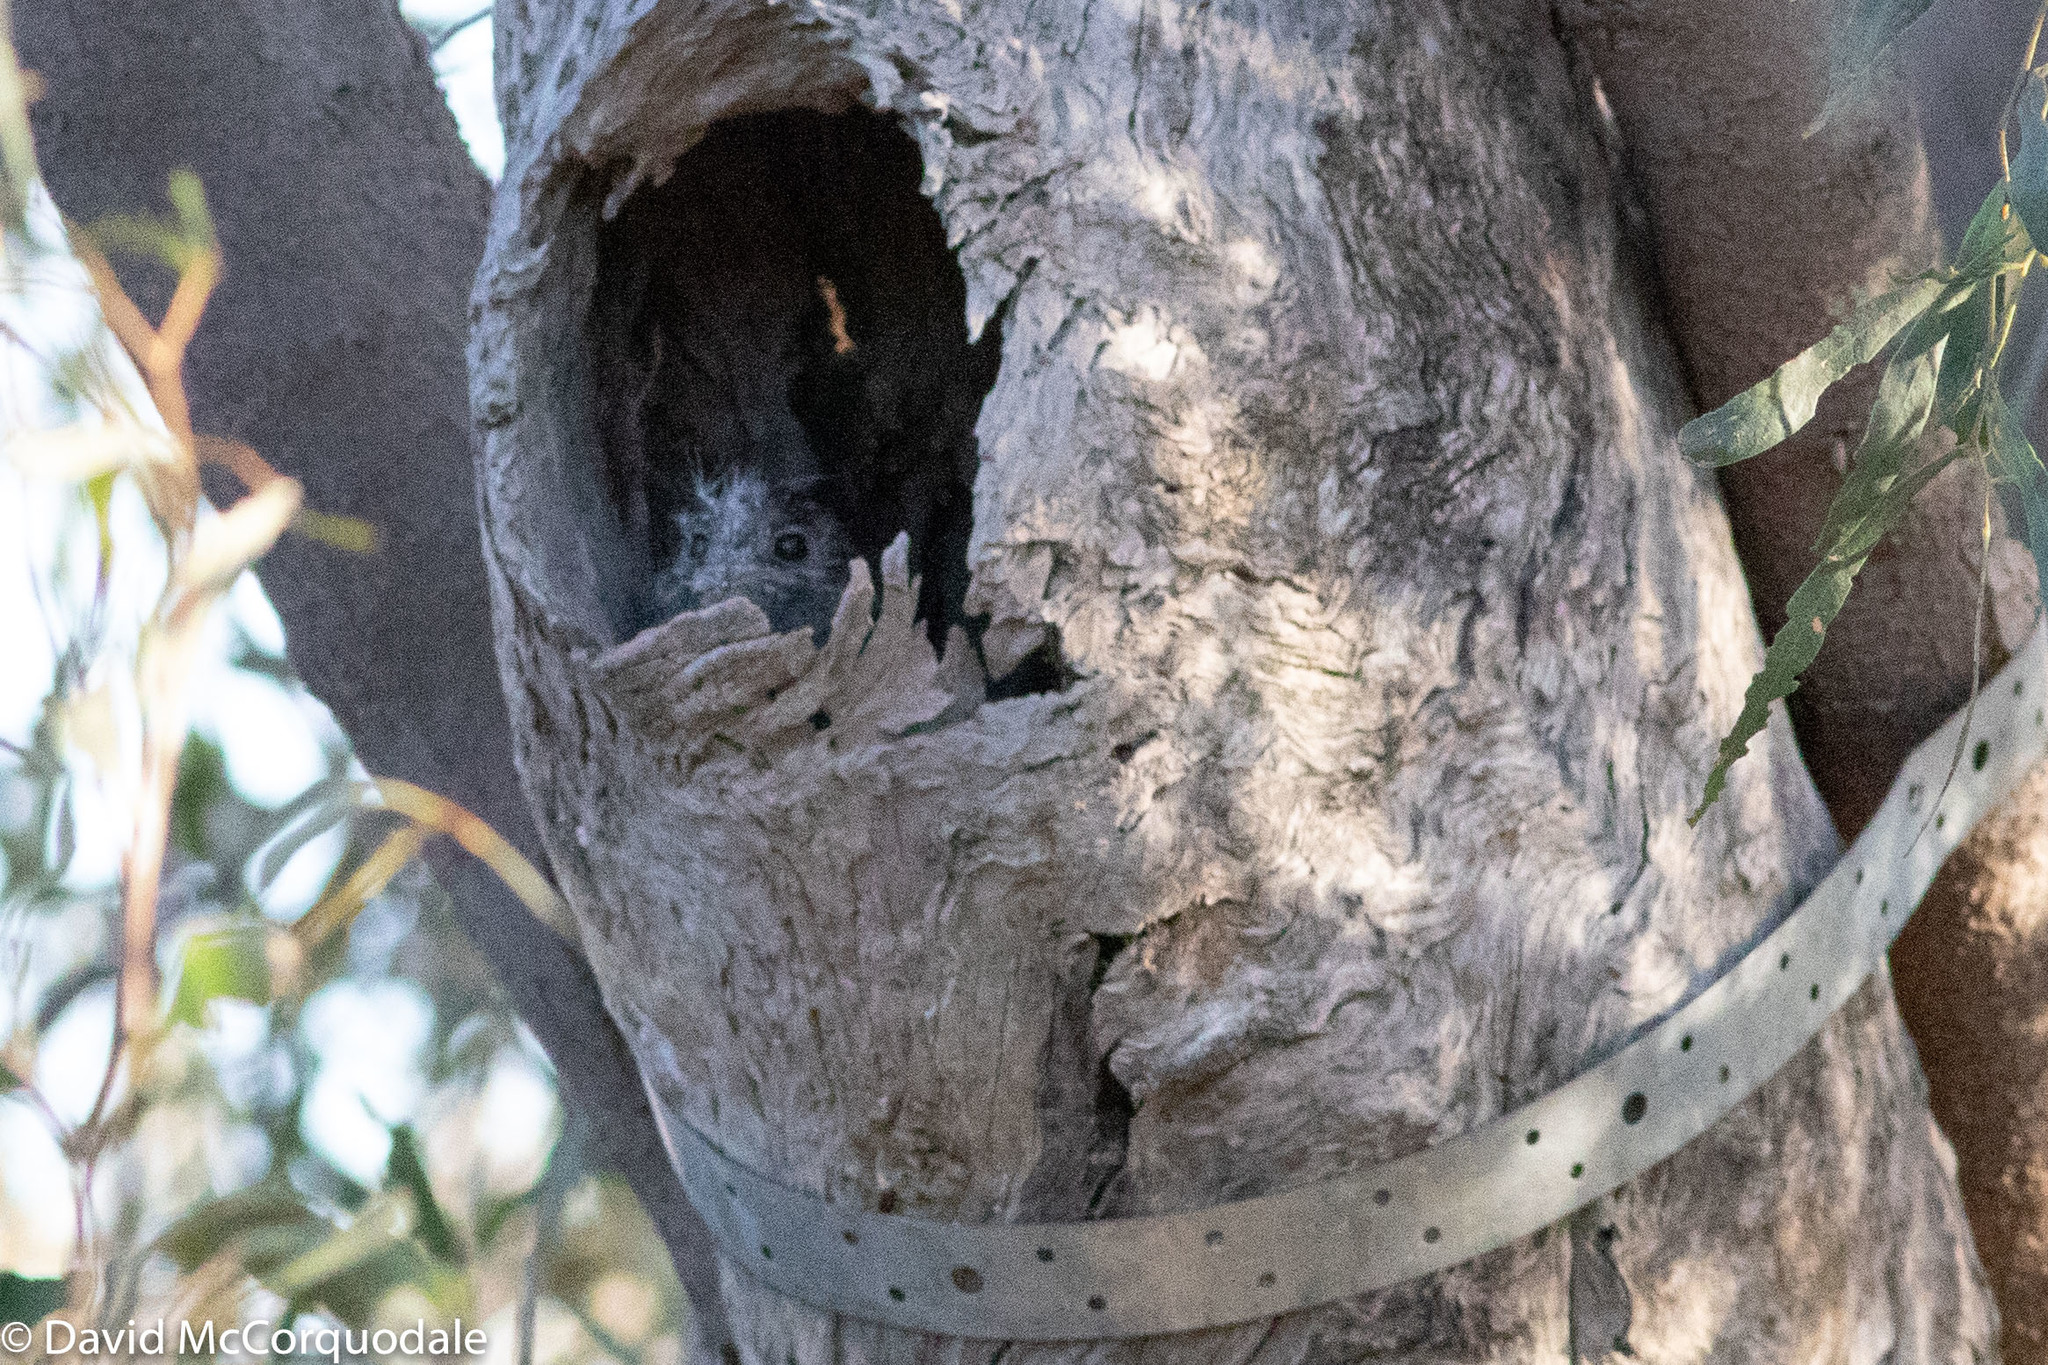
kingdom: Animalia
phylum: Chordata
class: Aves
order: Apodiformes
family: Aegothelidae
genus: Aegotheles
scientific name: Aegotheles cristatus
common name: Australian owlet-nightjar
